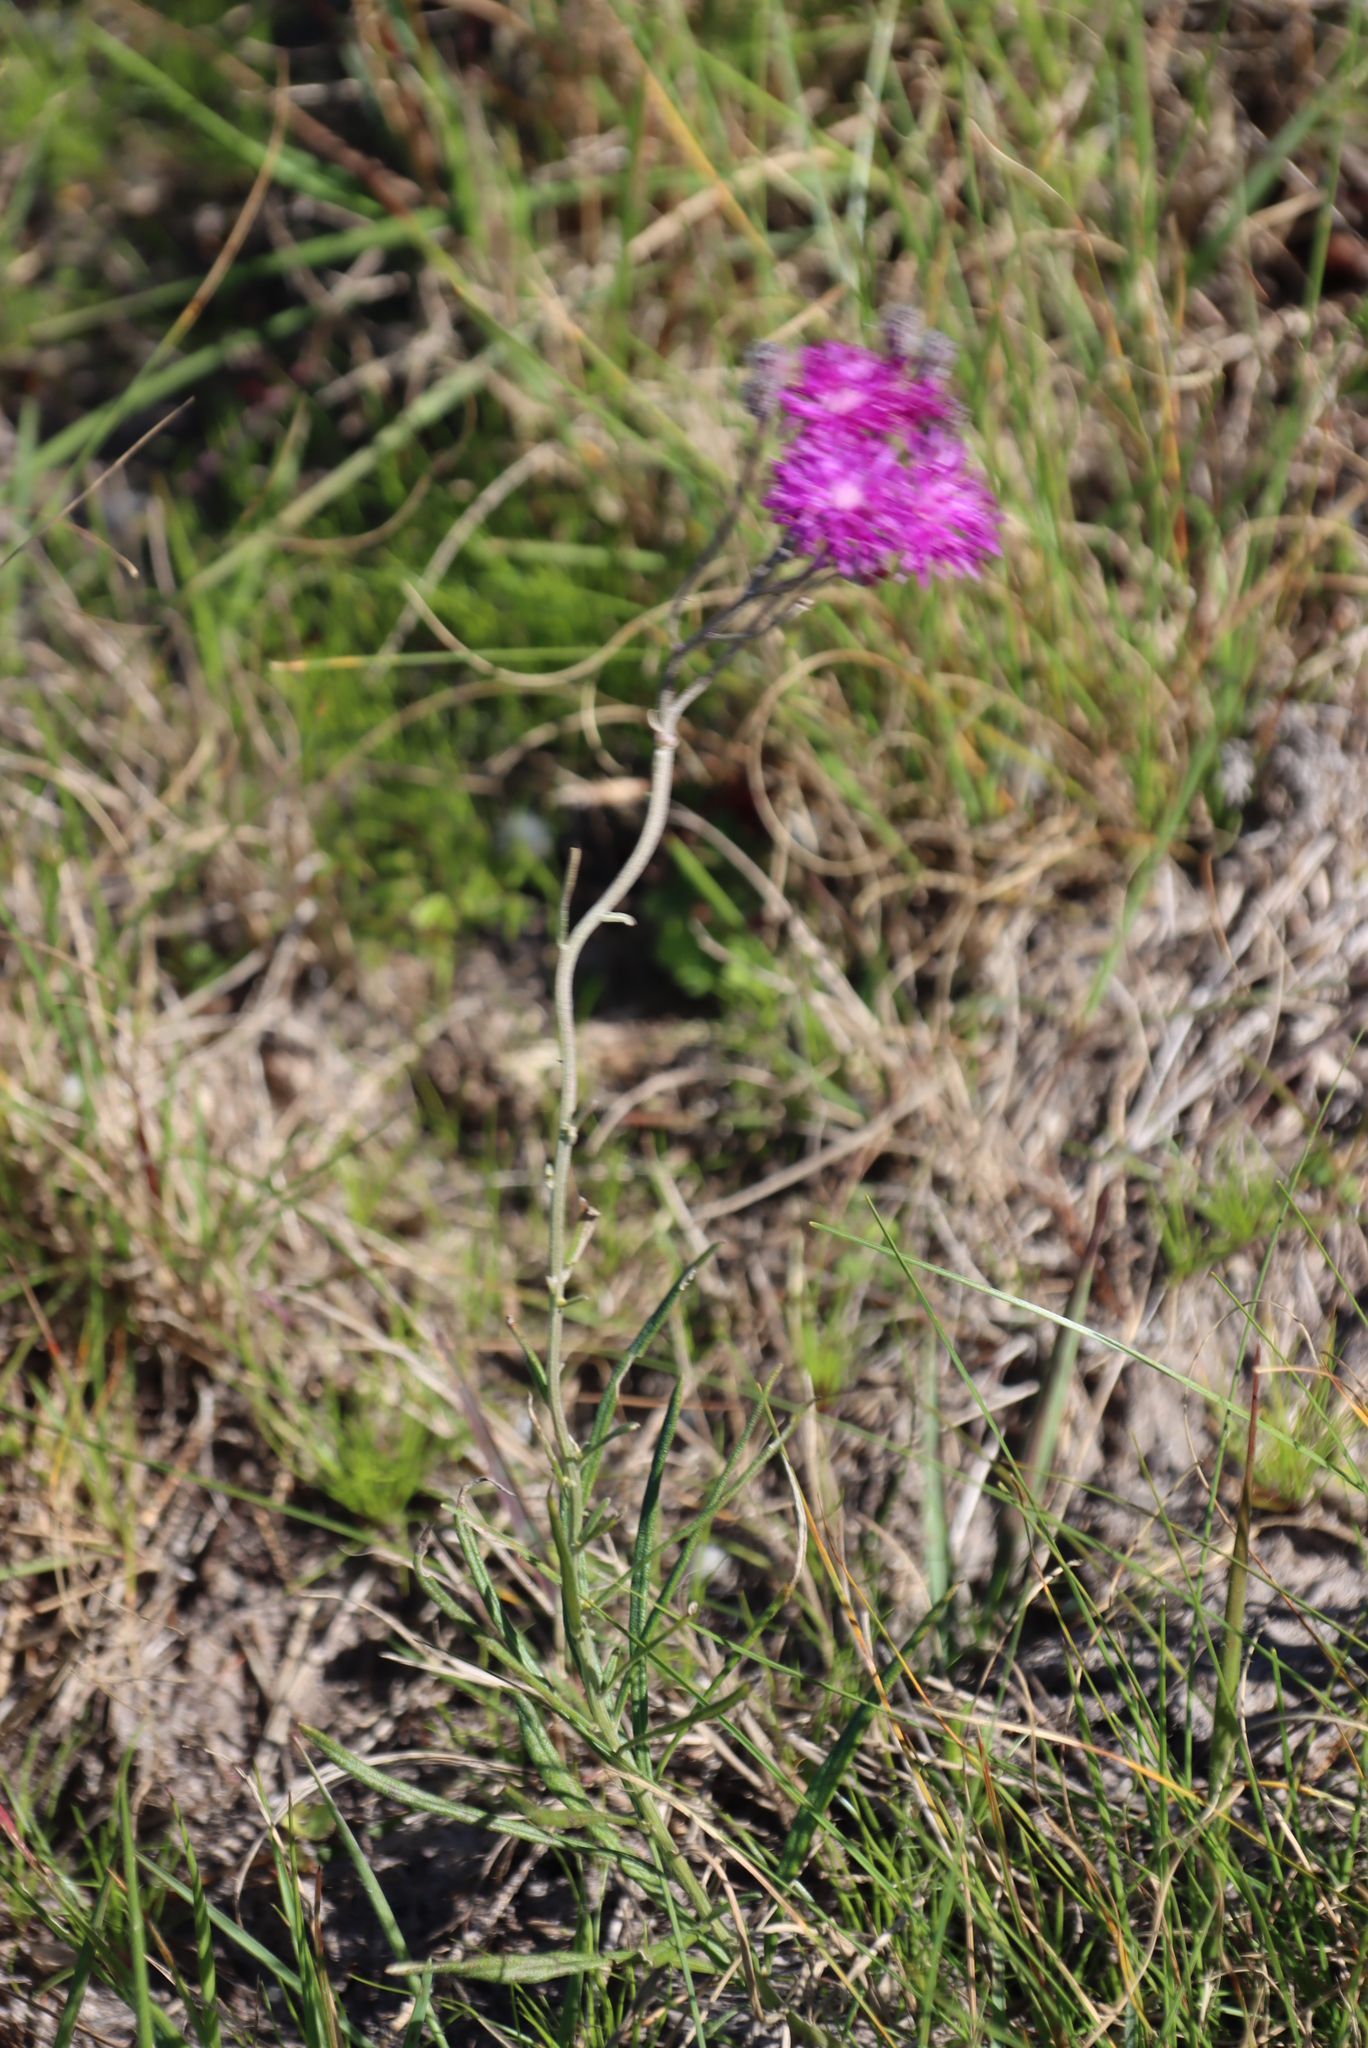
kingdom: Plantae
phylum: Tracheophyta
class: Magnoliopsida
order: Asterales
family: Asteraceae
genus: Hilliardiella
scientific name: Hilliardiella capensis
